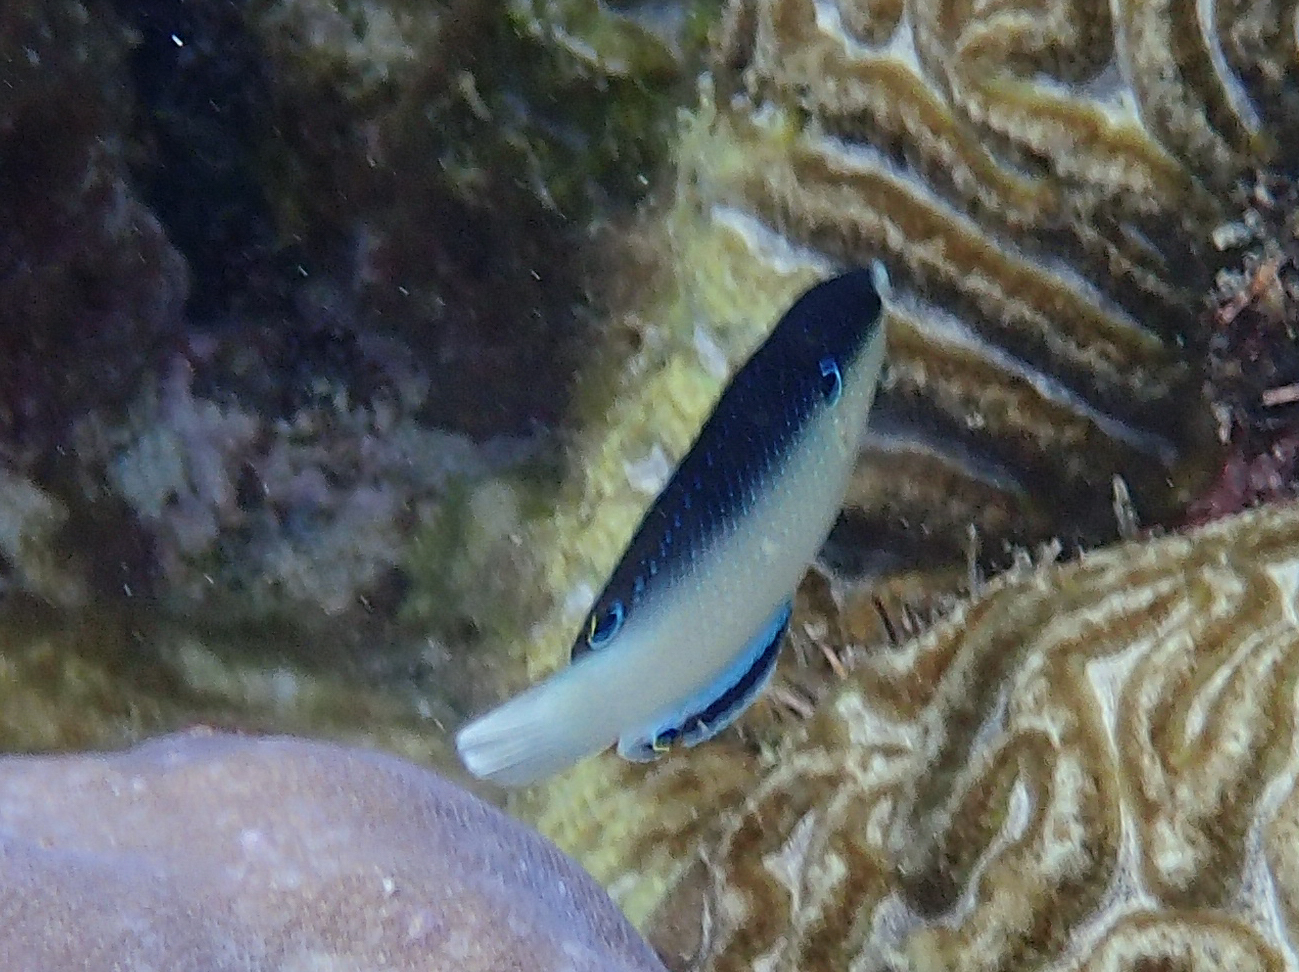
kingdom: Animalia
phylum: Chordata
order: Perciformes
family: Labridae
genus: Anampses
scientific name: Anampses neoguinaicus
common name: New guinea wrasse
